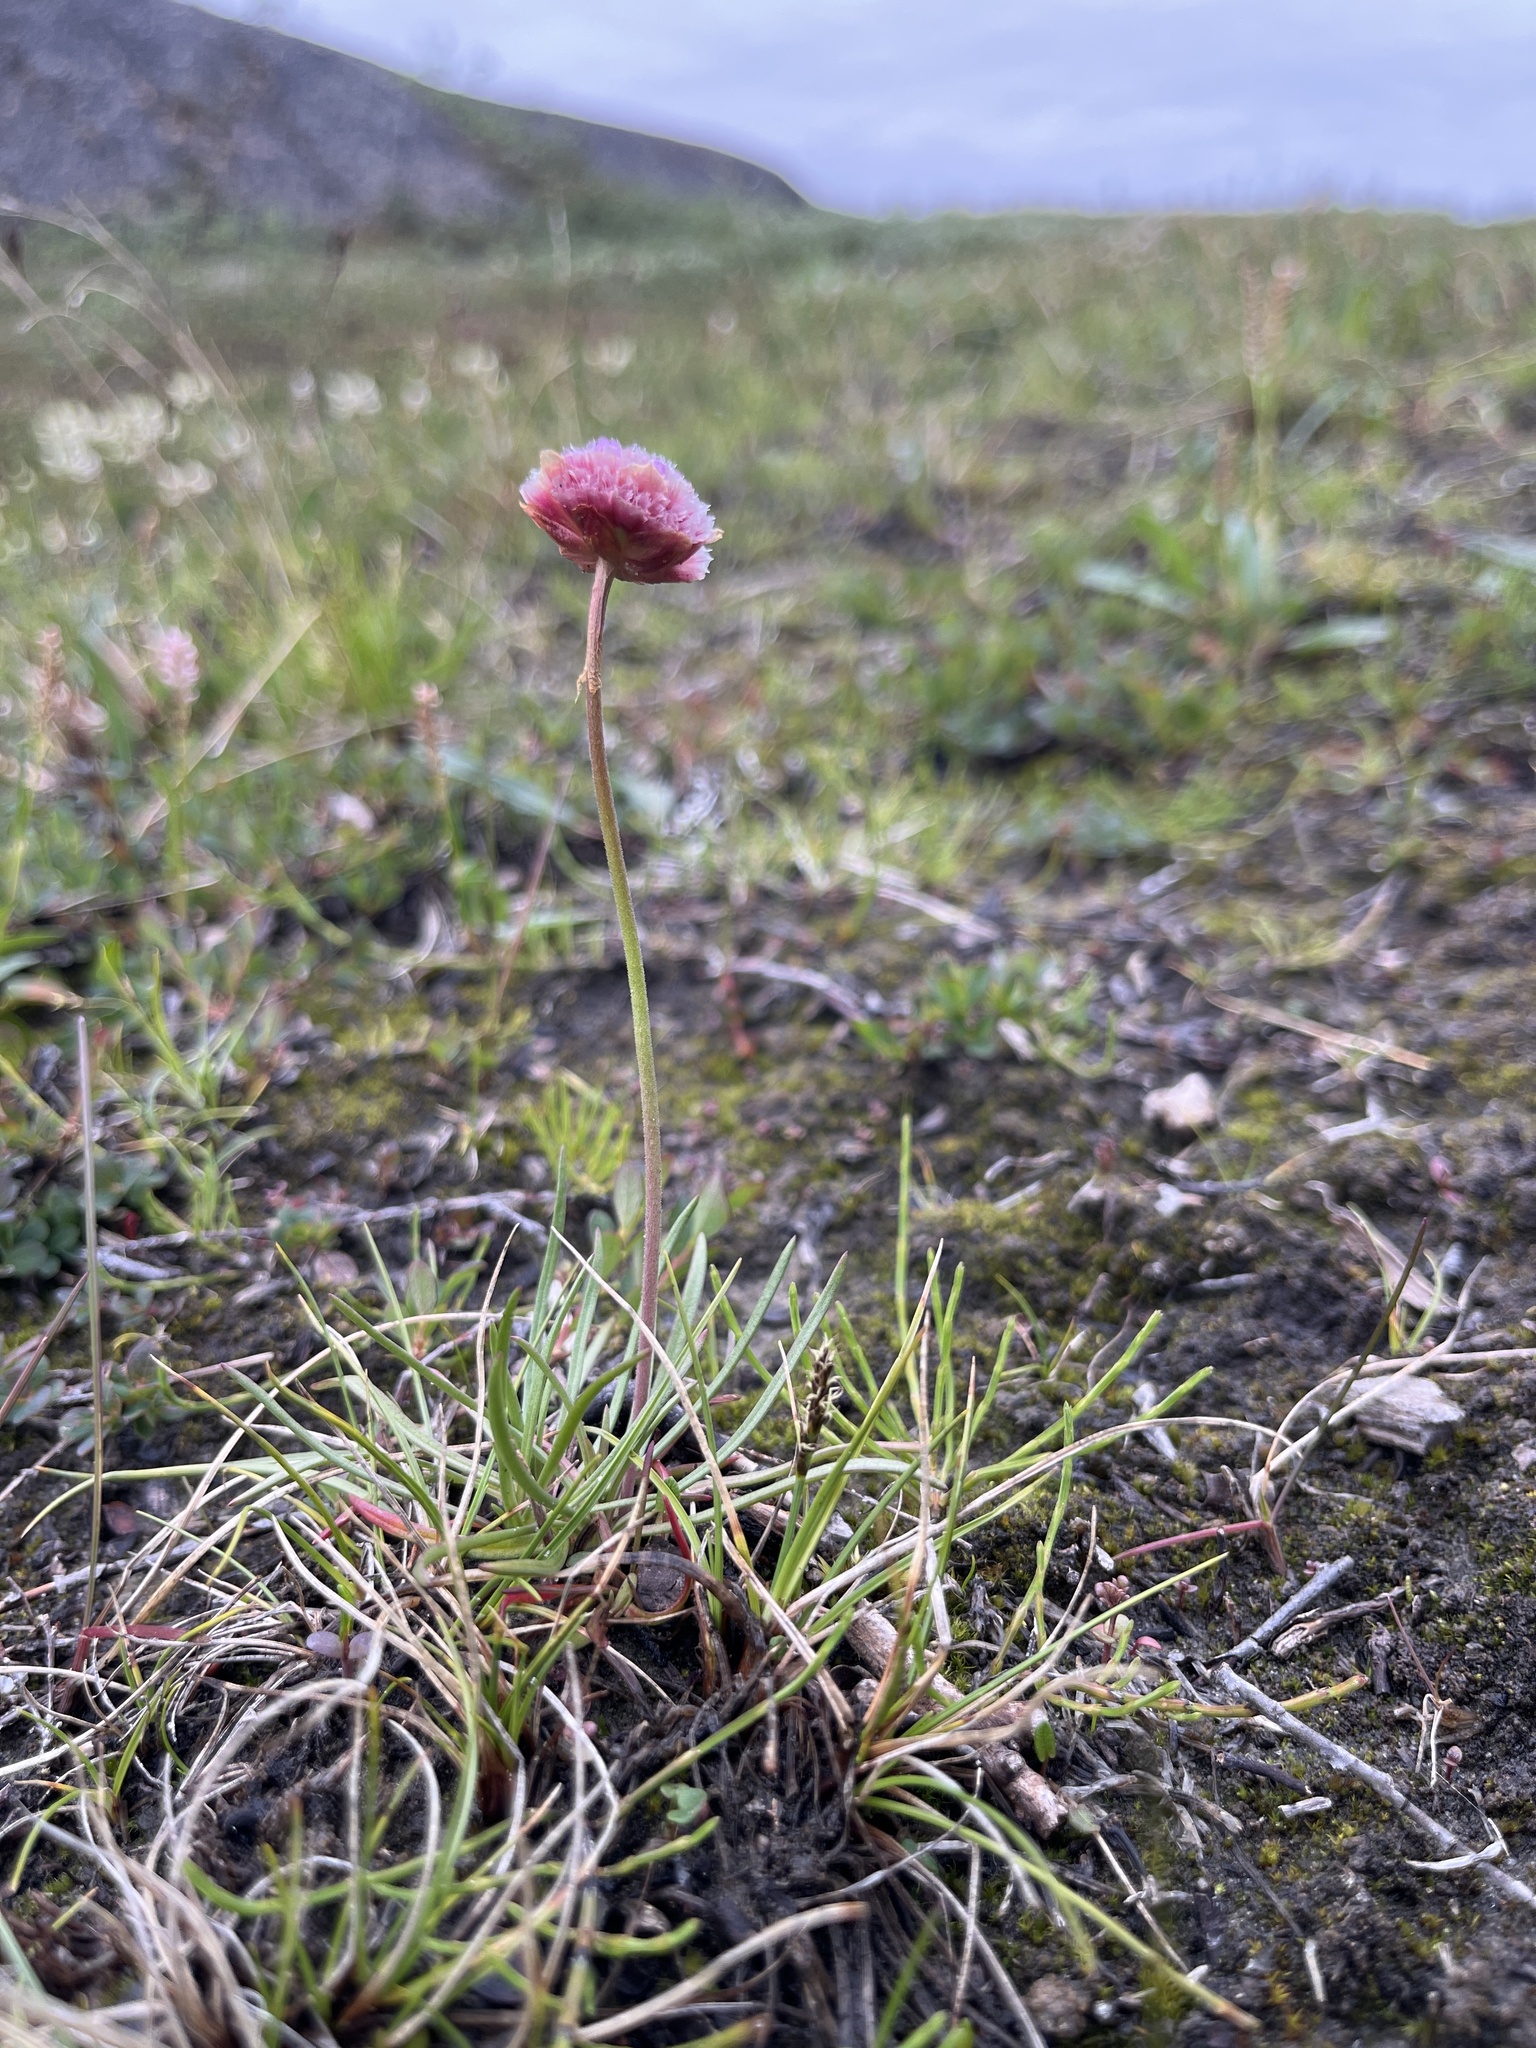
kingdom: Plantae
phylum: Tracheophyta
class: Magnoliopsida
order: Caryophyllales
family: Plumbaginaceae
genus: Armeria
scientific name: Armeria maritima
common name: Thrift
